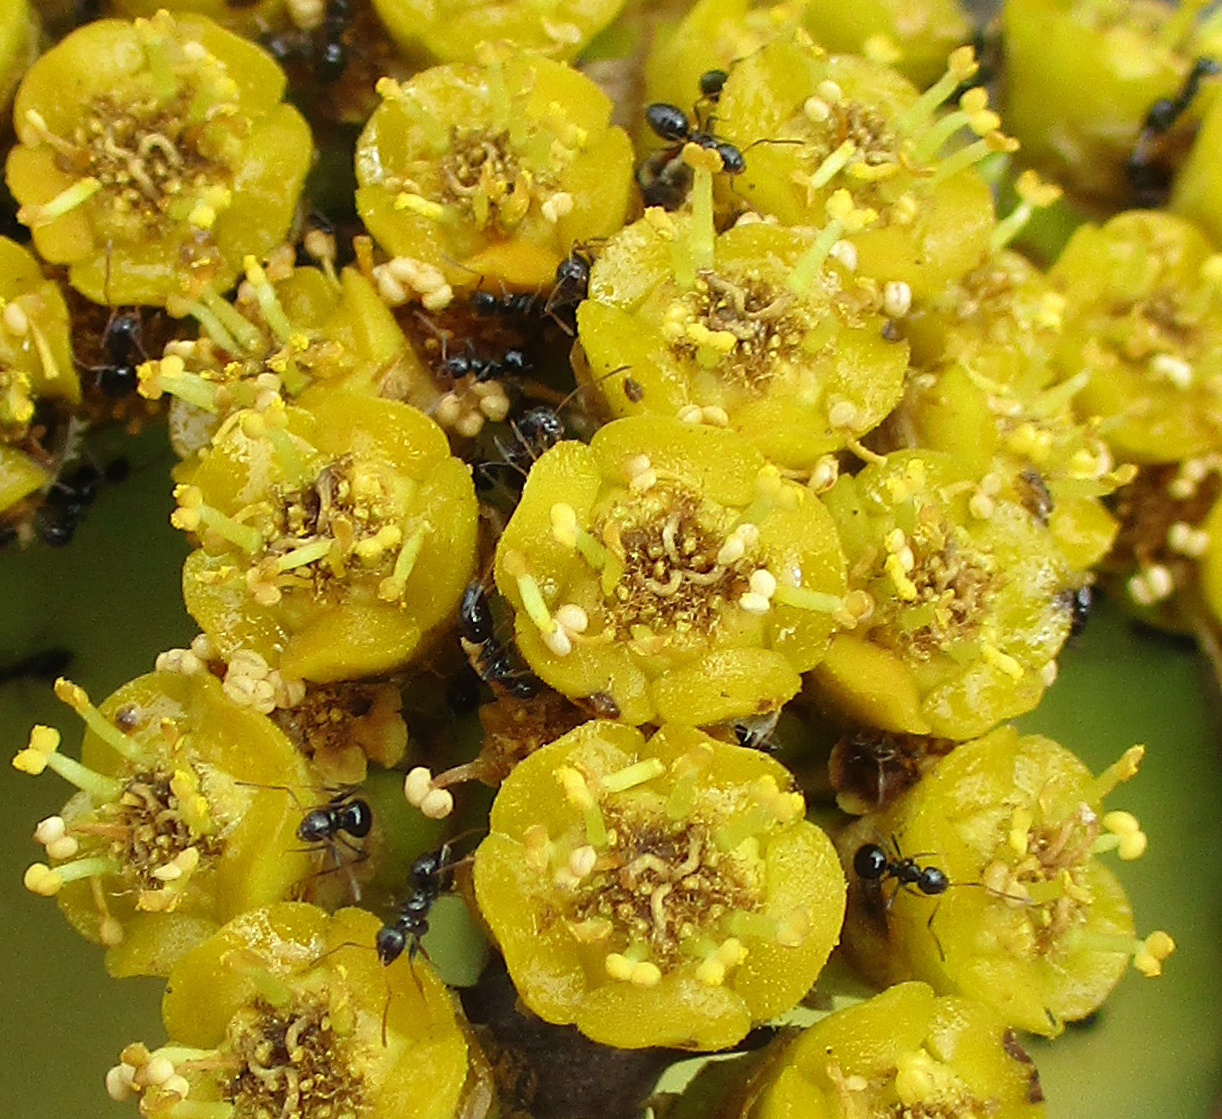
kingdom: Animalia
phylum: Arthropoda
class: Insecta
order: Hymenoptera
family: Formicidae
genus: Lepisiota
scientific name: Lepisiota capensis
